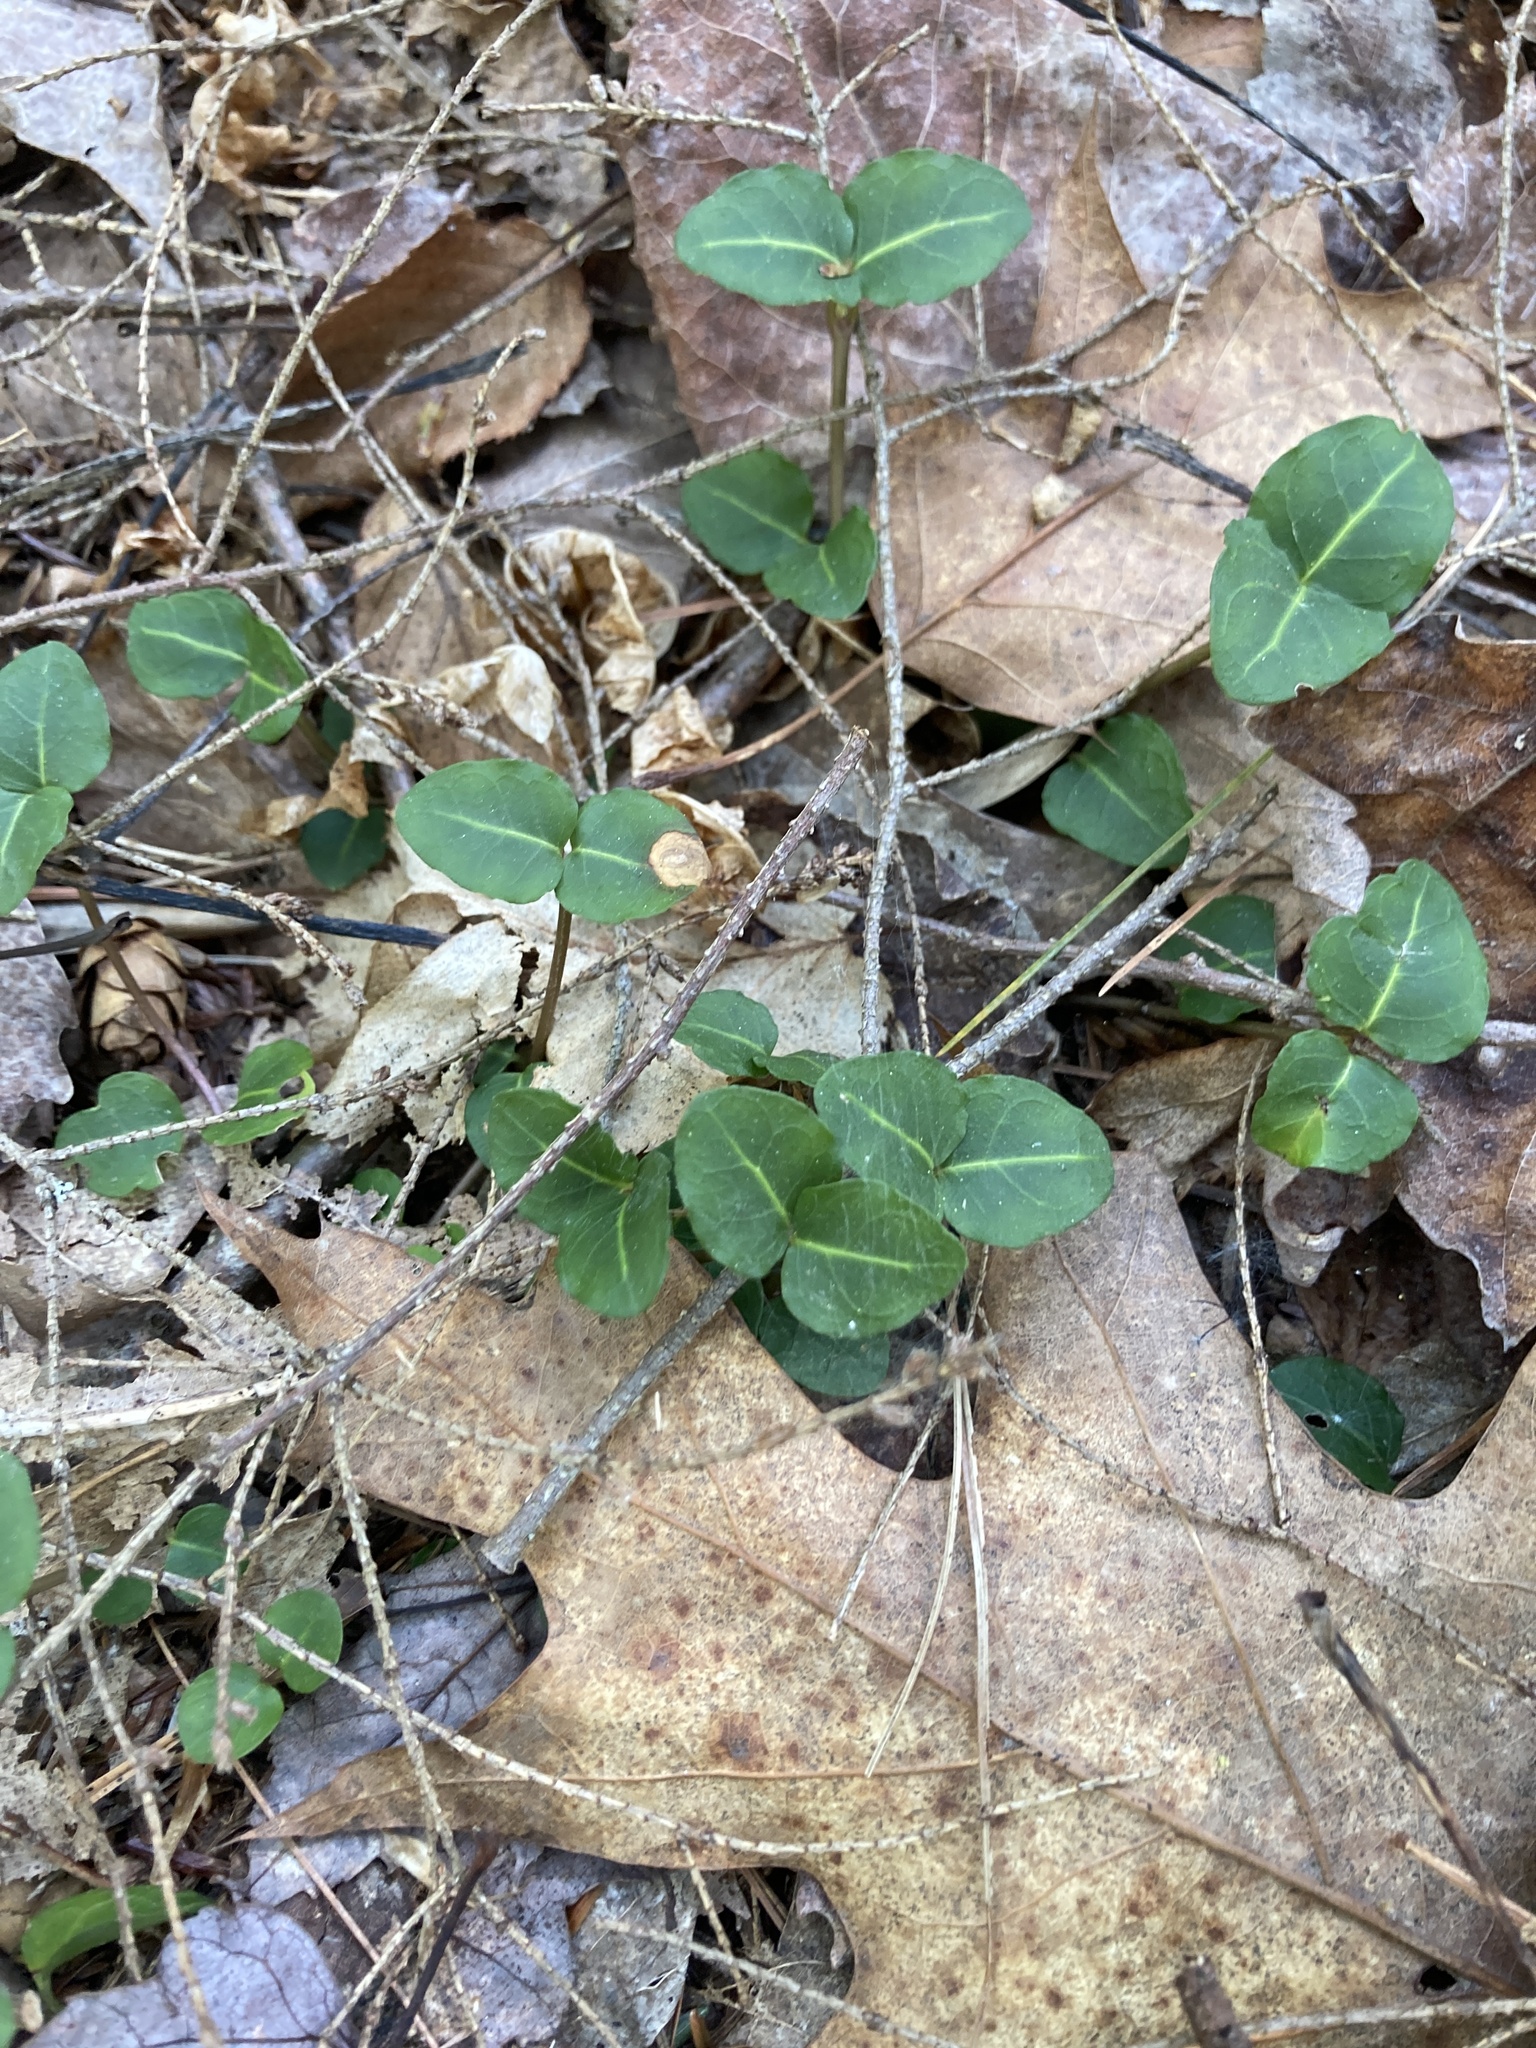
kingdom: Plantae
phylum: Tracheophyta
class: Magnoliopsida
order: Gentianales
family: Rubiaceae
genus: Mitchella
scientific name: Mitchella repens
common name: Partridge-berry
